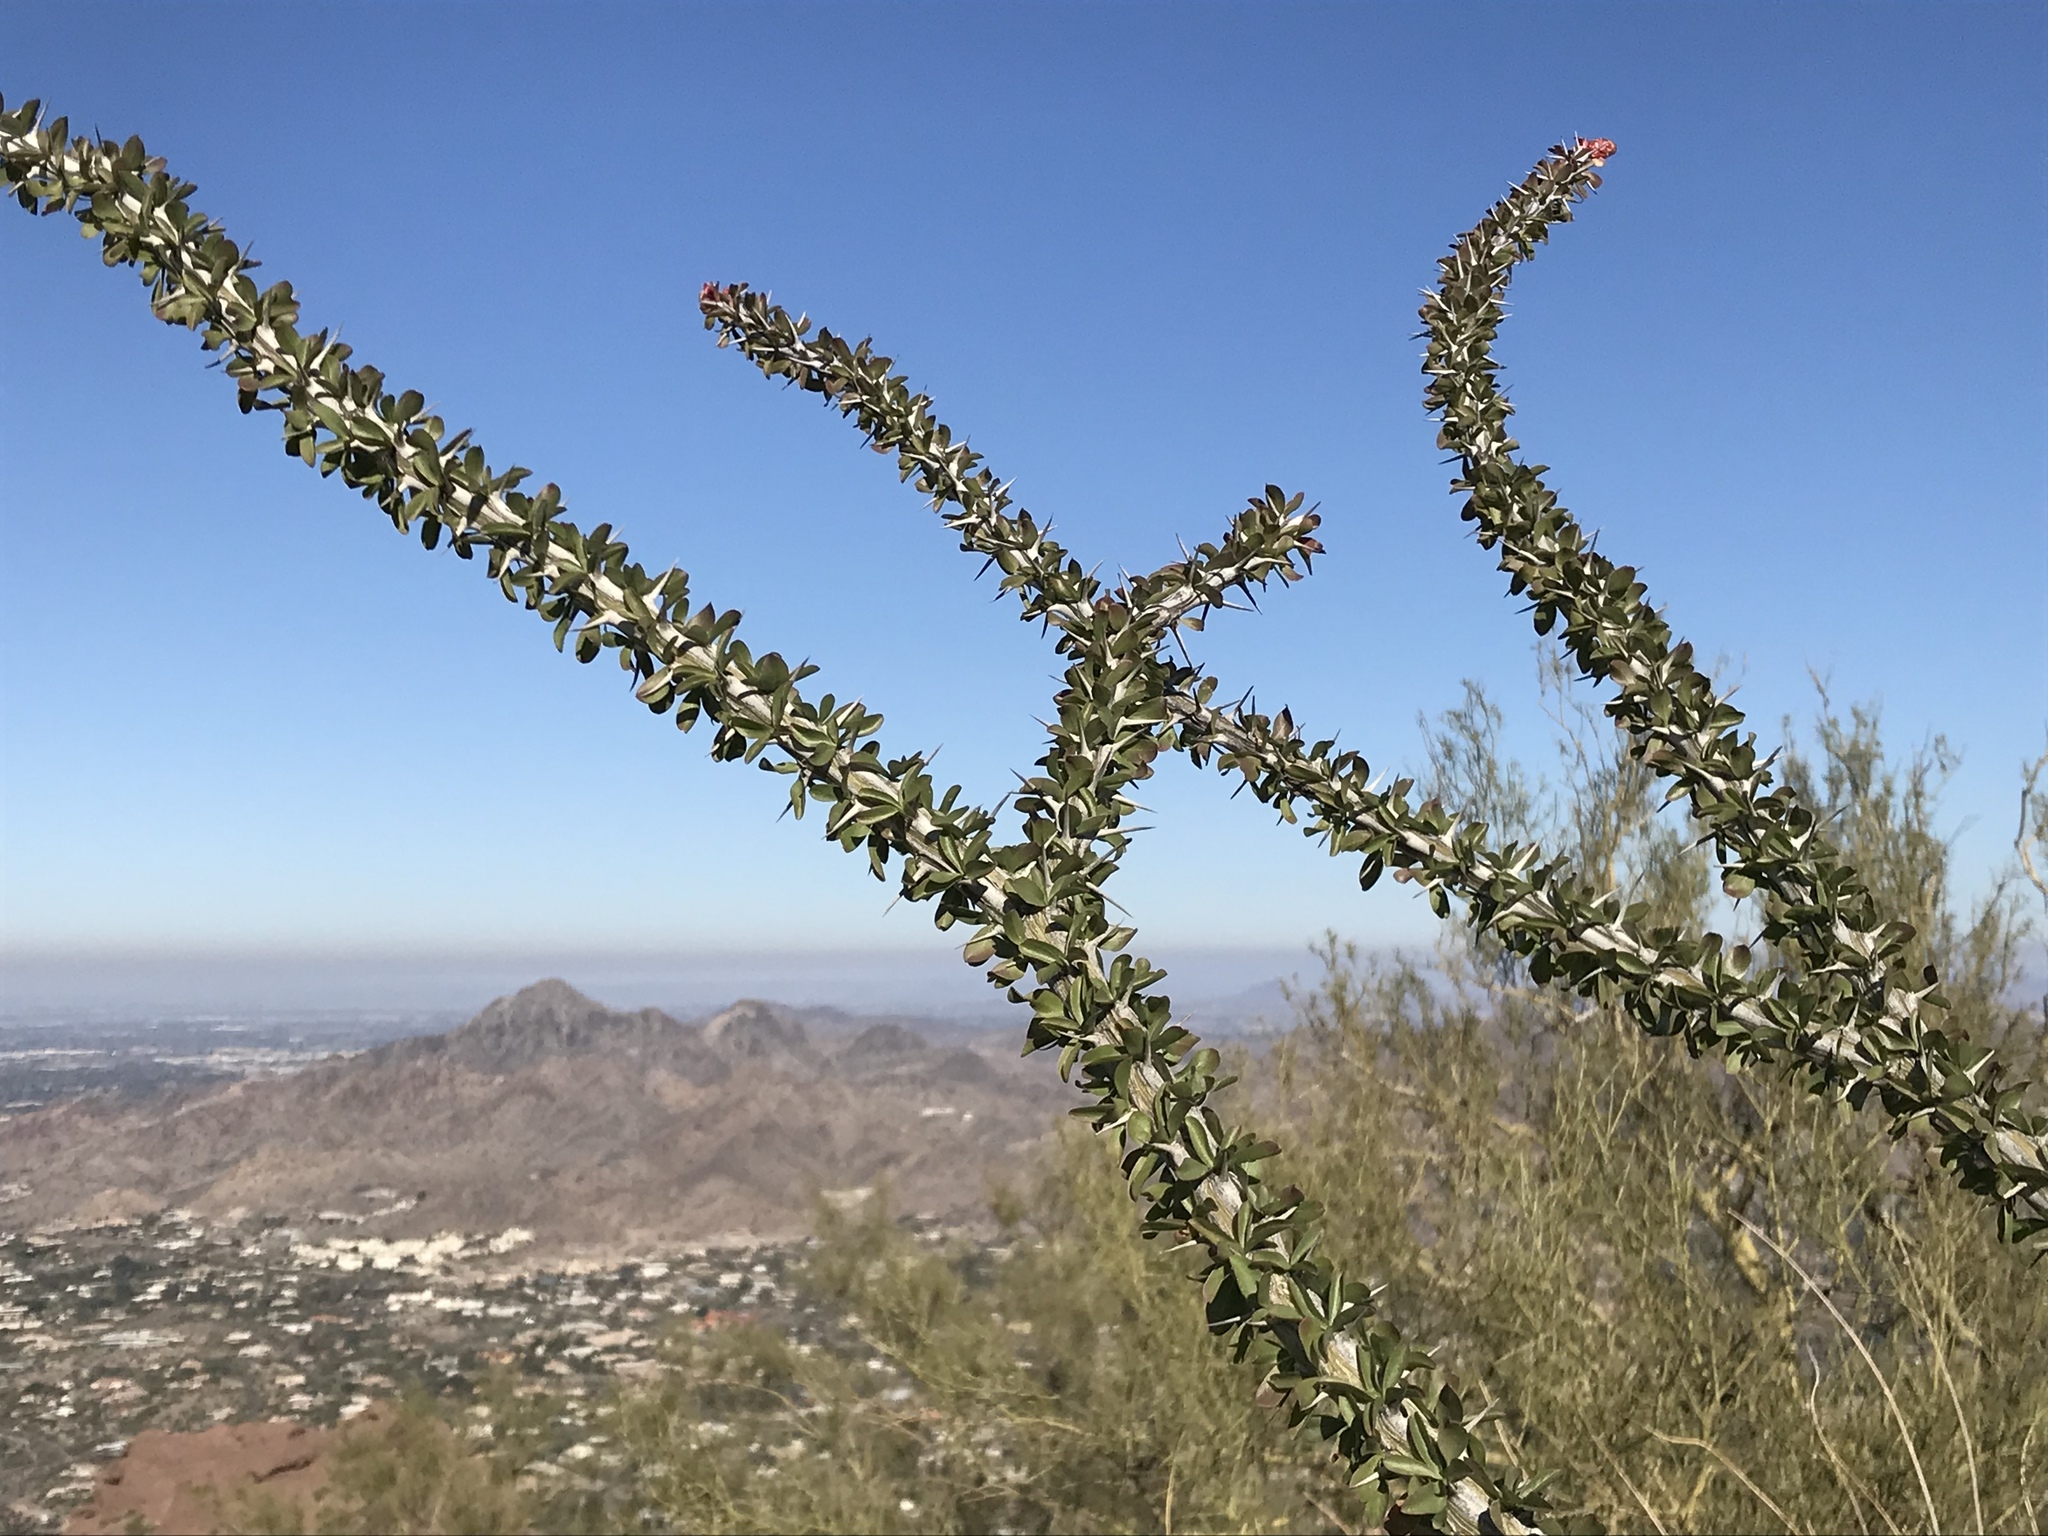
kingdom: Plantae
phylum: Tracheophyta
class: Magnoliopsida
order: Ericales
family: Fouquieriaceae
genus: Fouquieria
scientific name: Fouquieria splendens
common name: Vine-cactus
